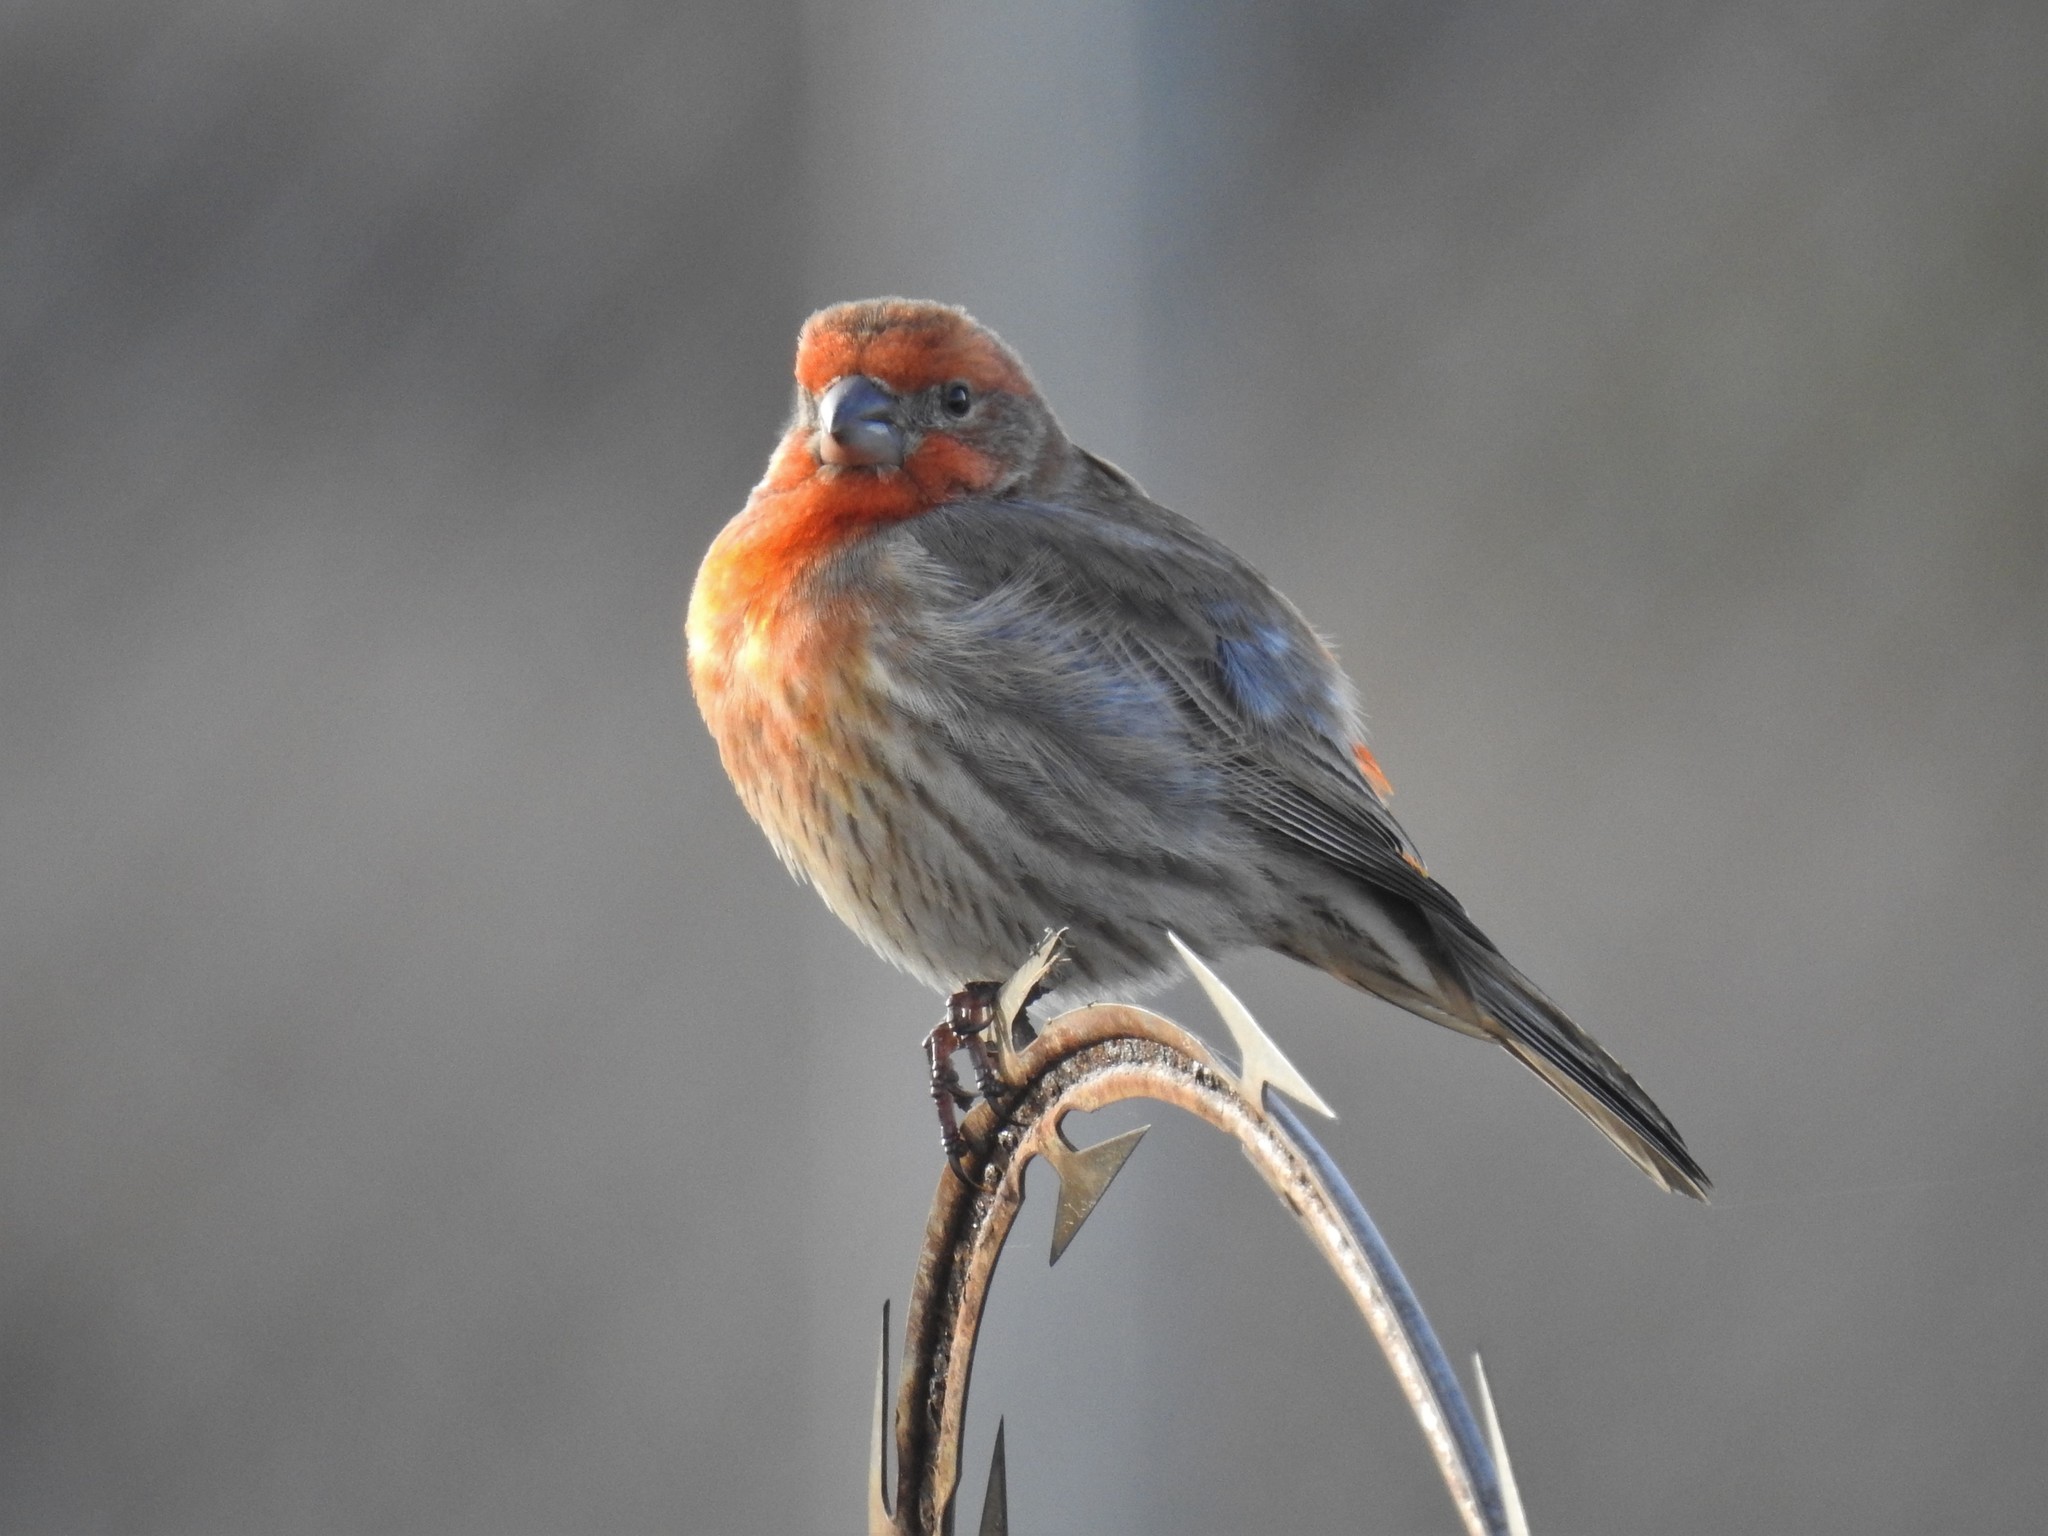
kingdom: Animalia
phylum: Chordata
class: Aves
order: Passeriformes
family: Fringillidae
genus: Haemorhous
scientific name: Haemorhous mexicanus
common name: House finch
